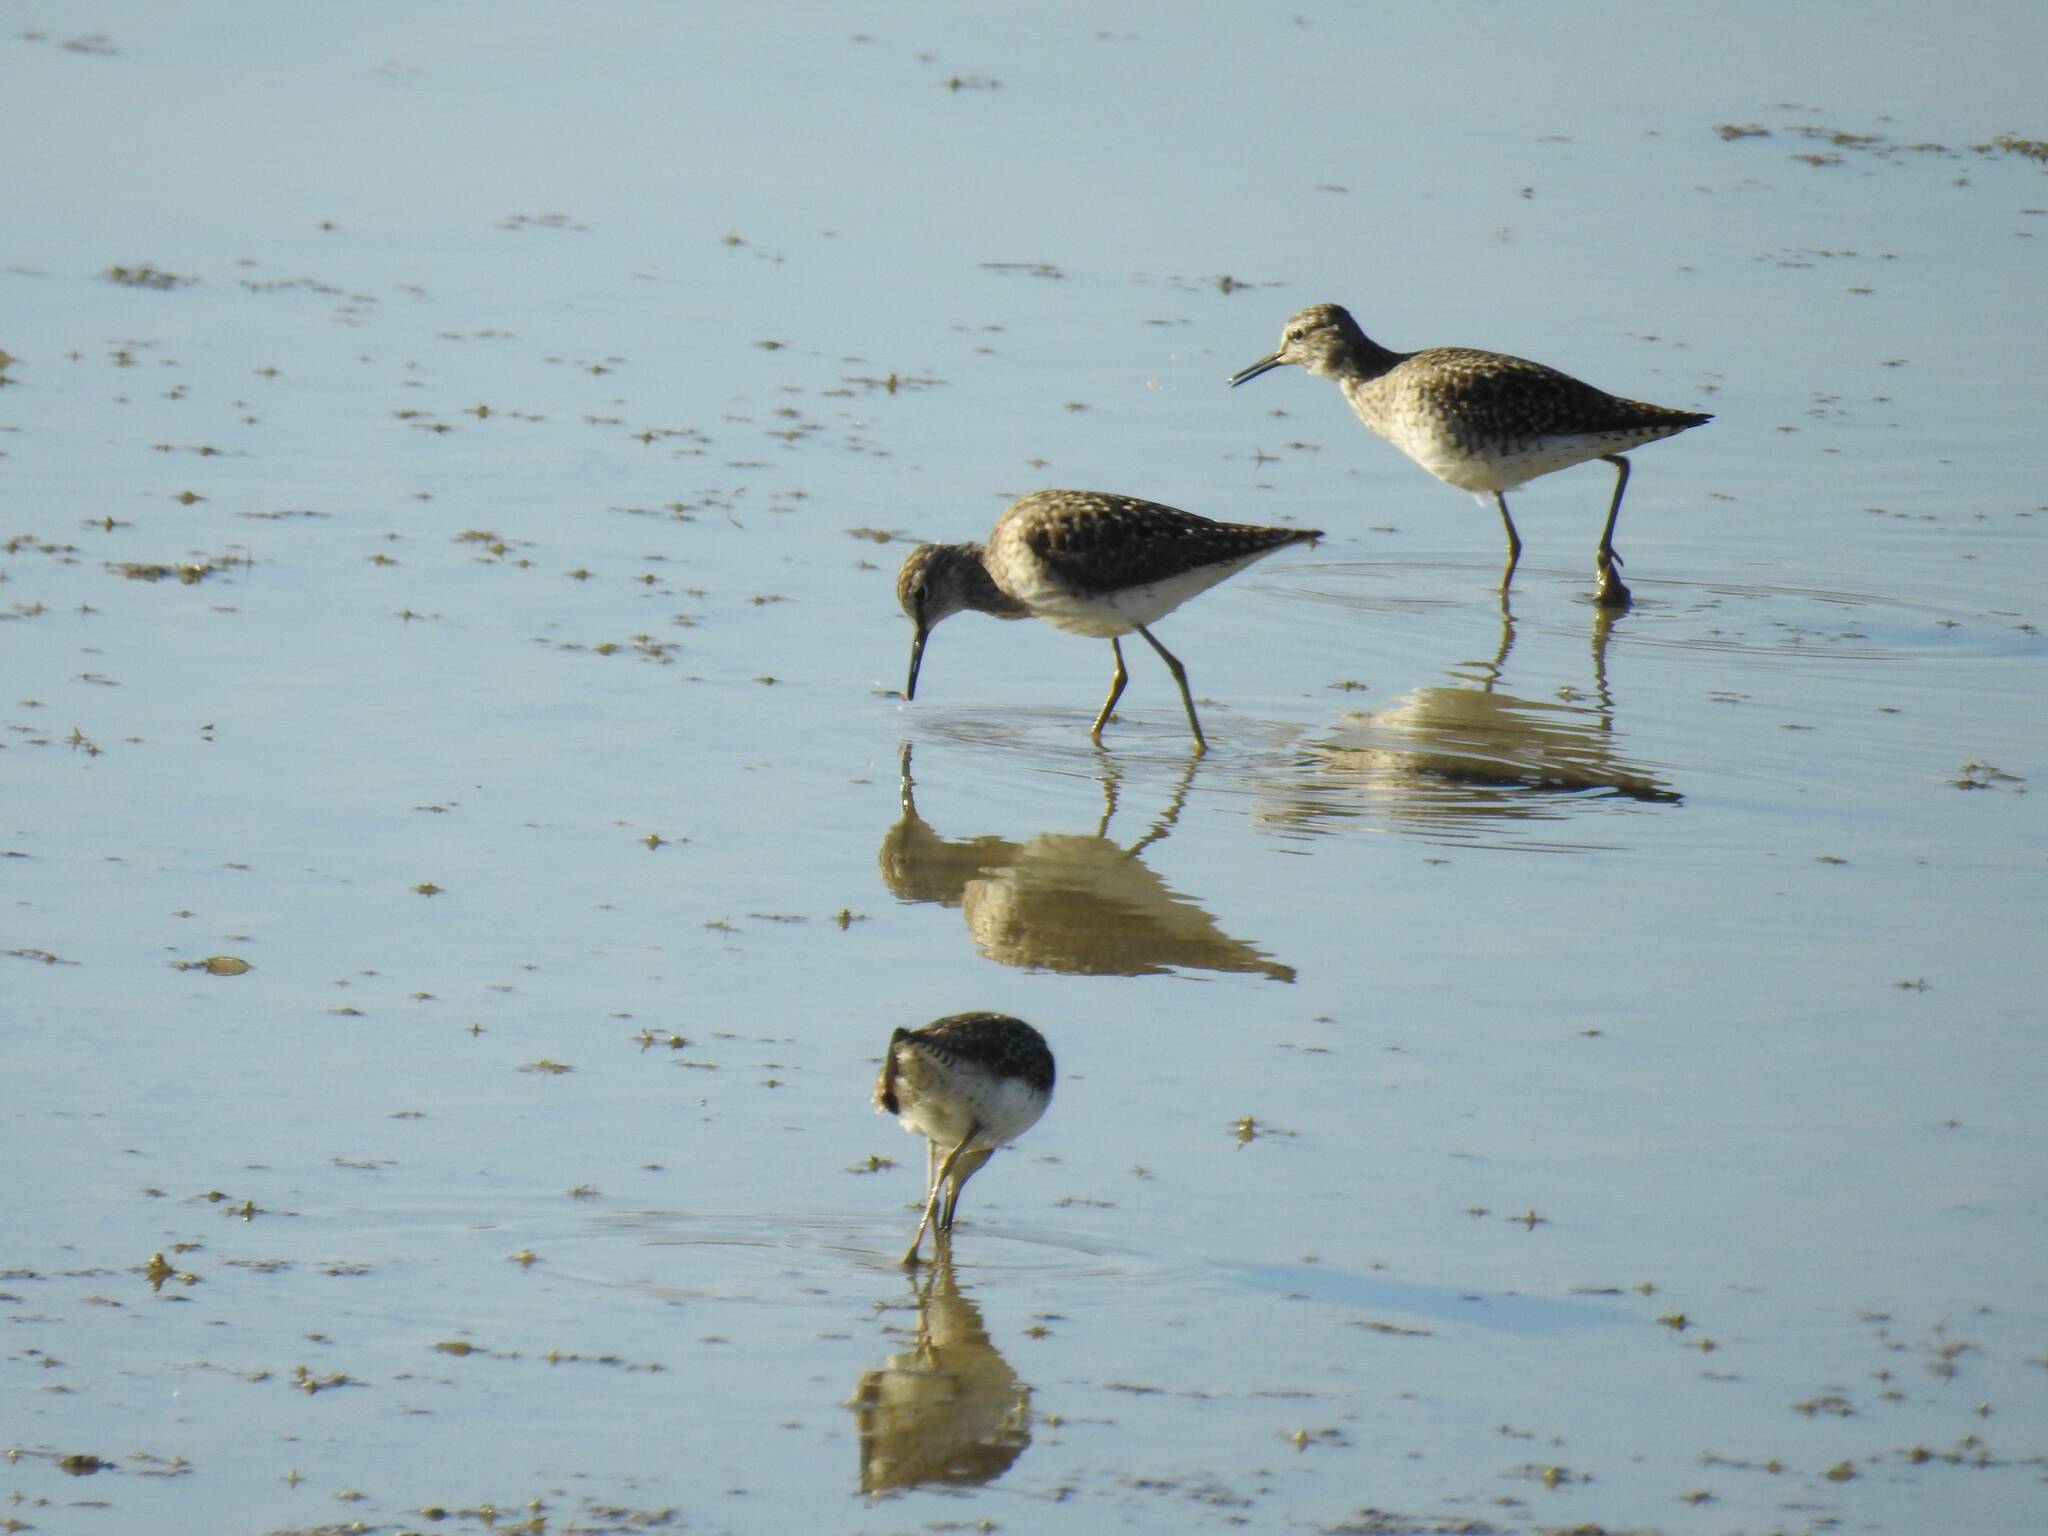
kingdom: Animalia
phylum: Chordata
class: Aves
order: Charadriiformes
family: Scolopacidae
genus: Tringa
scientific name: Tringa glareola
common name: Wood sandpiper
